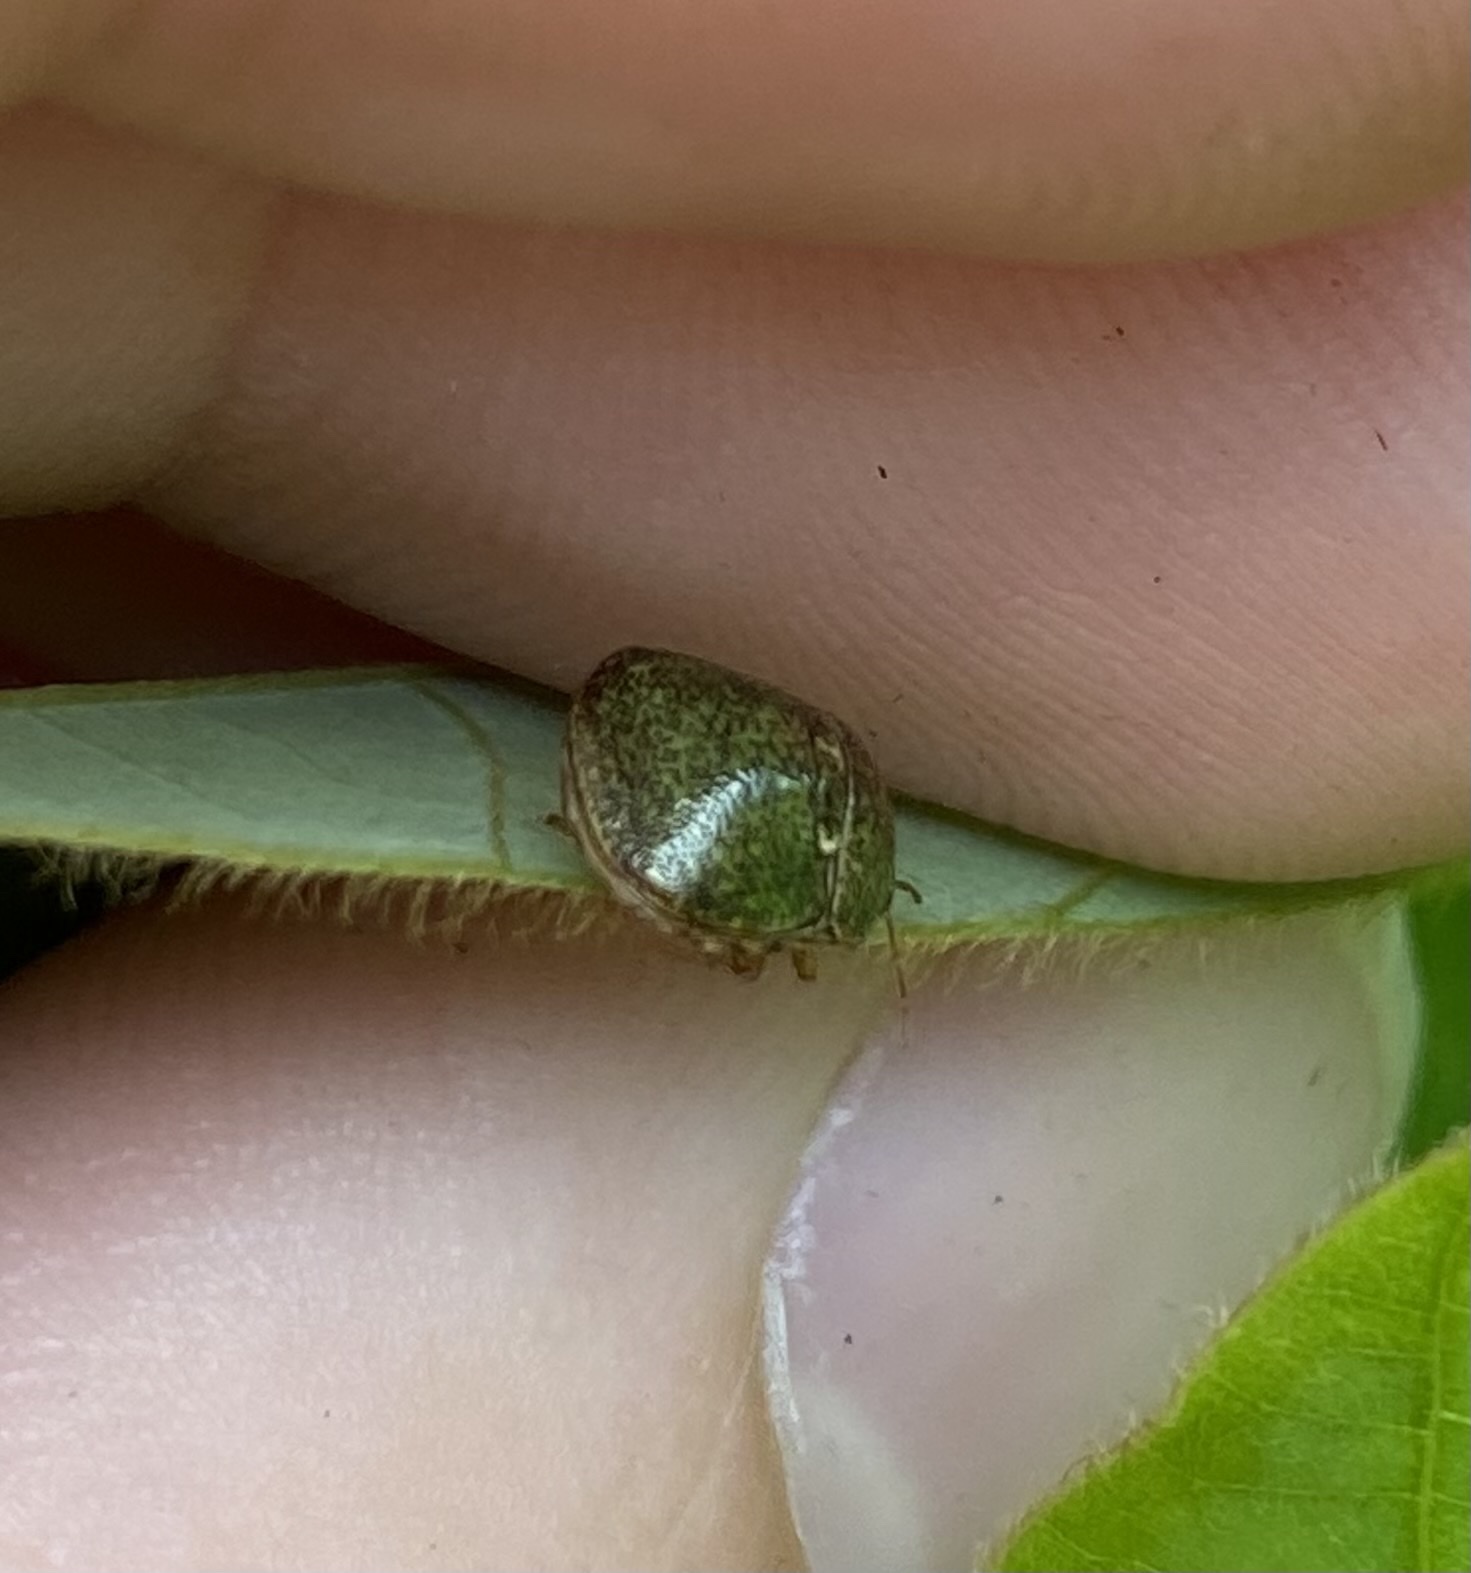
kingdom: Animalia
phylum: Arthropoda
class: Insecta
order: Hemiptera
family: Plataspidae
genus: Megacopta
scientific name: Megacopta cribraria
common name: Bean plataspid
